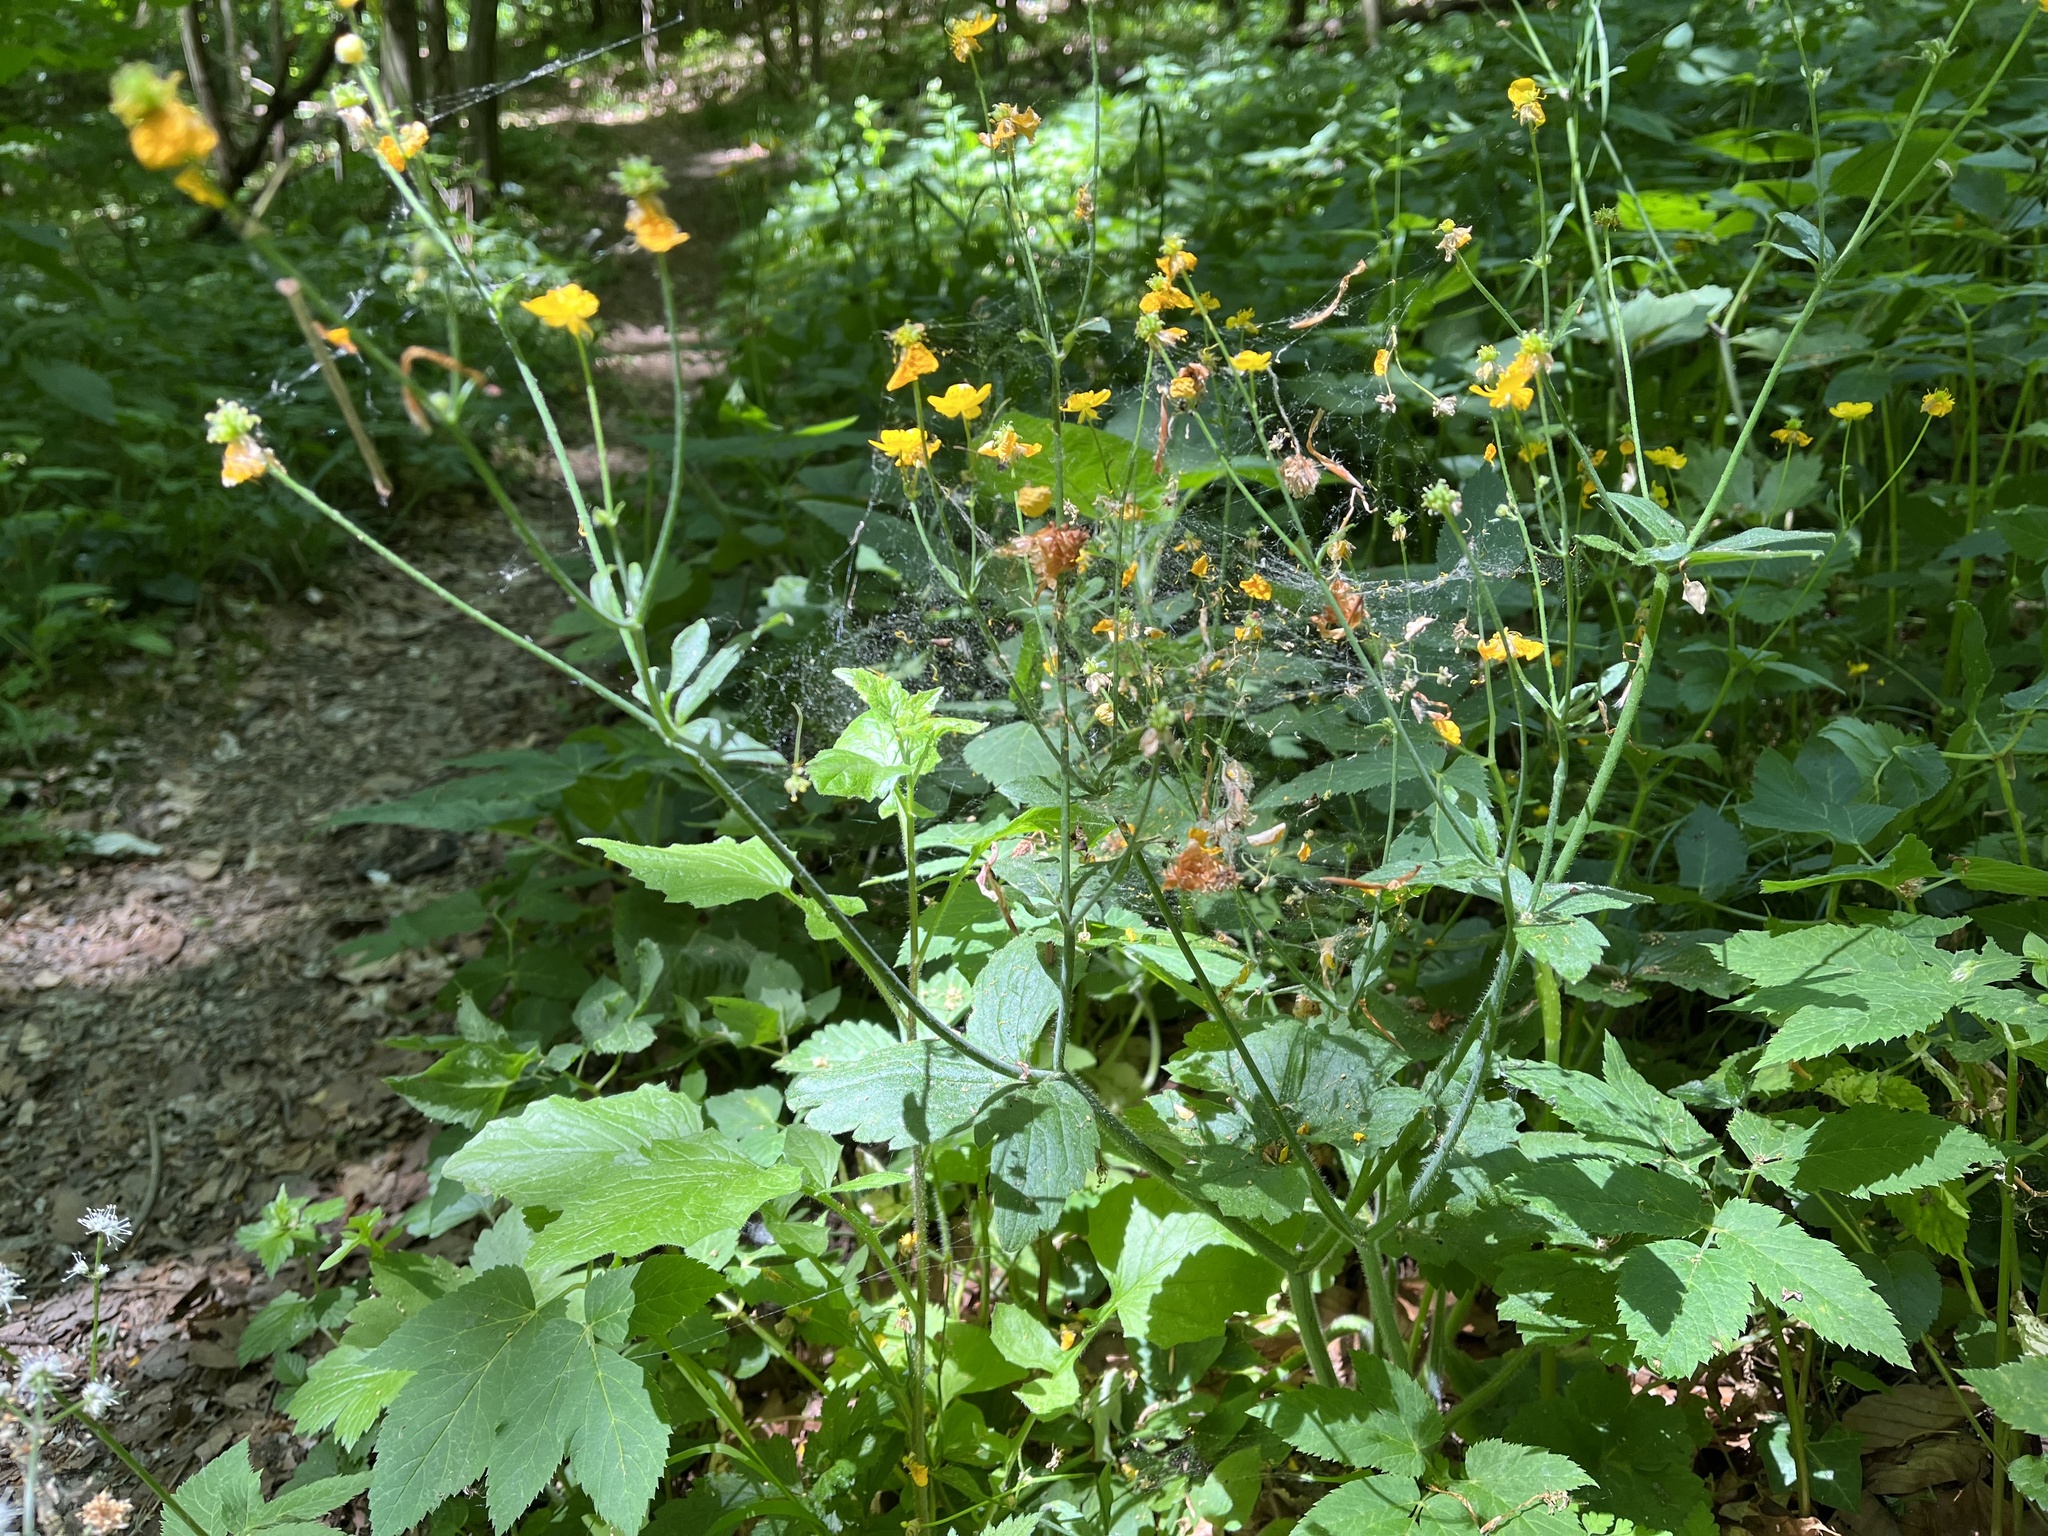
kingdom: Plantae
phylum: Tracheophyta
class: Magnoliopsida
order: Ranunculales
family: Ranunculaceae
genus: Ranunculus
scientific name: Ranunculus lanuginosus
